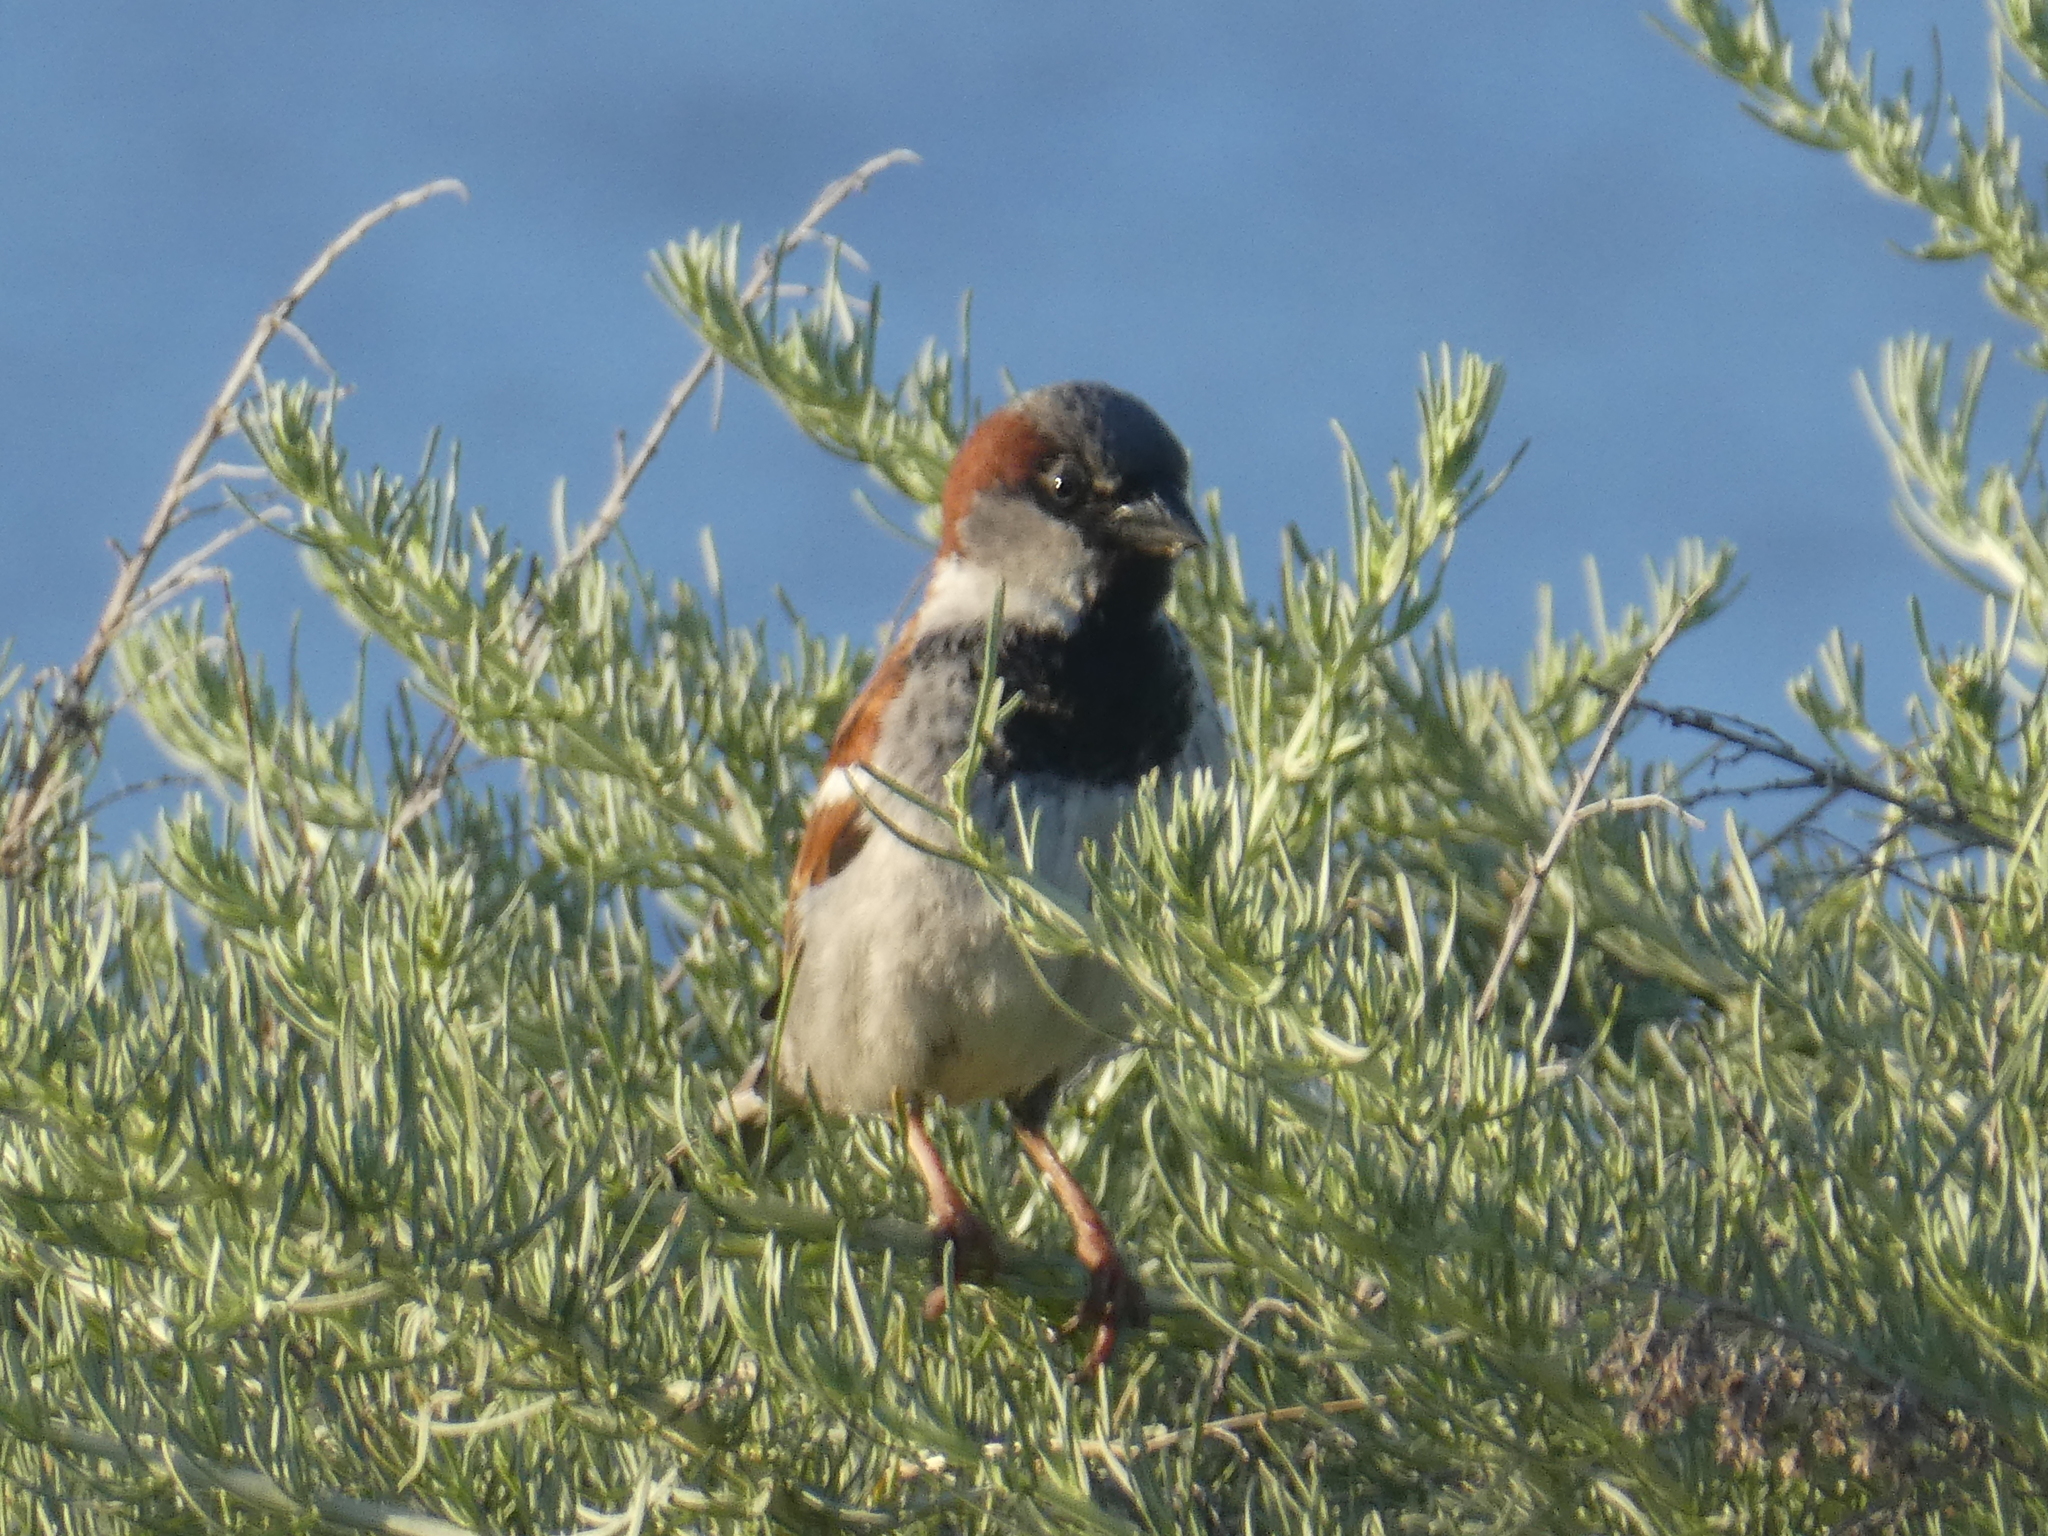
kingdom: Animalia
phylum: Chordata
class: Aves
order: Passeriformes
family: Passeridae
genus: Passer
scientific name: Passer domesticus
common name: House sparrow
